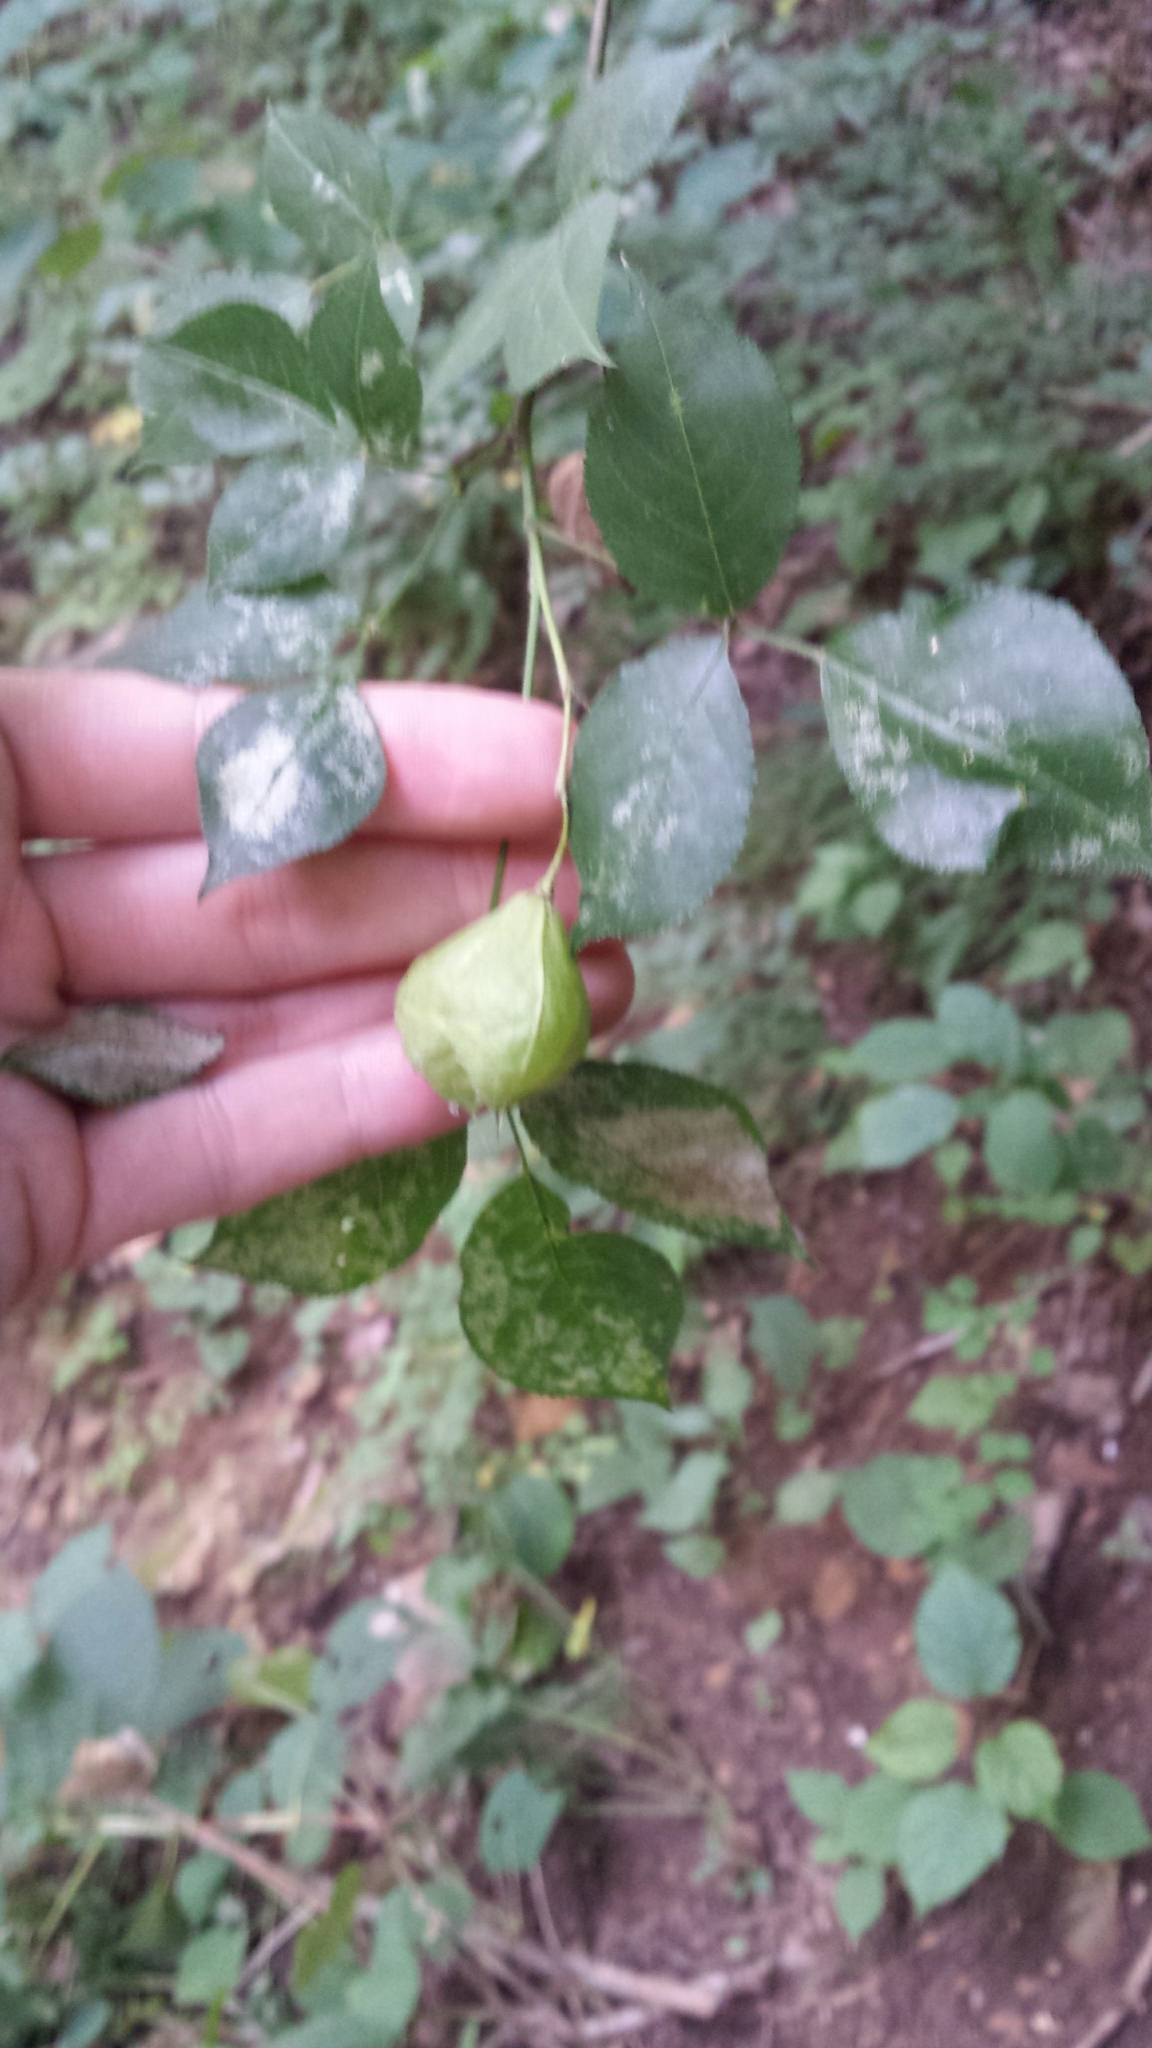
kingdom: Plantae
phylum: Tracheophyta
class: Magnoliopsida
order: Crossosomatales
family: Staphyleaceae
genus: Staphylea
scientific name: Staphylea trifolia
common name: American bladdernut
